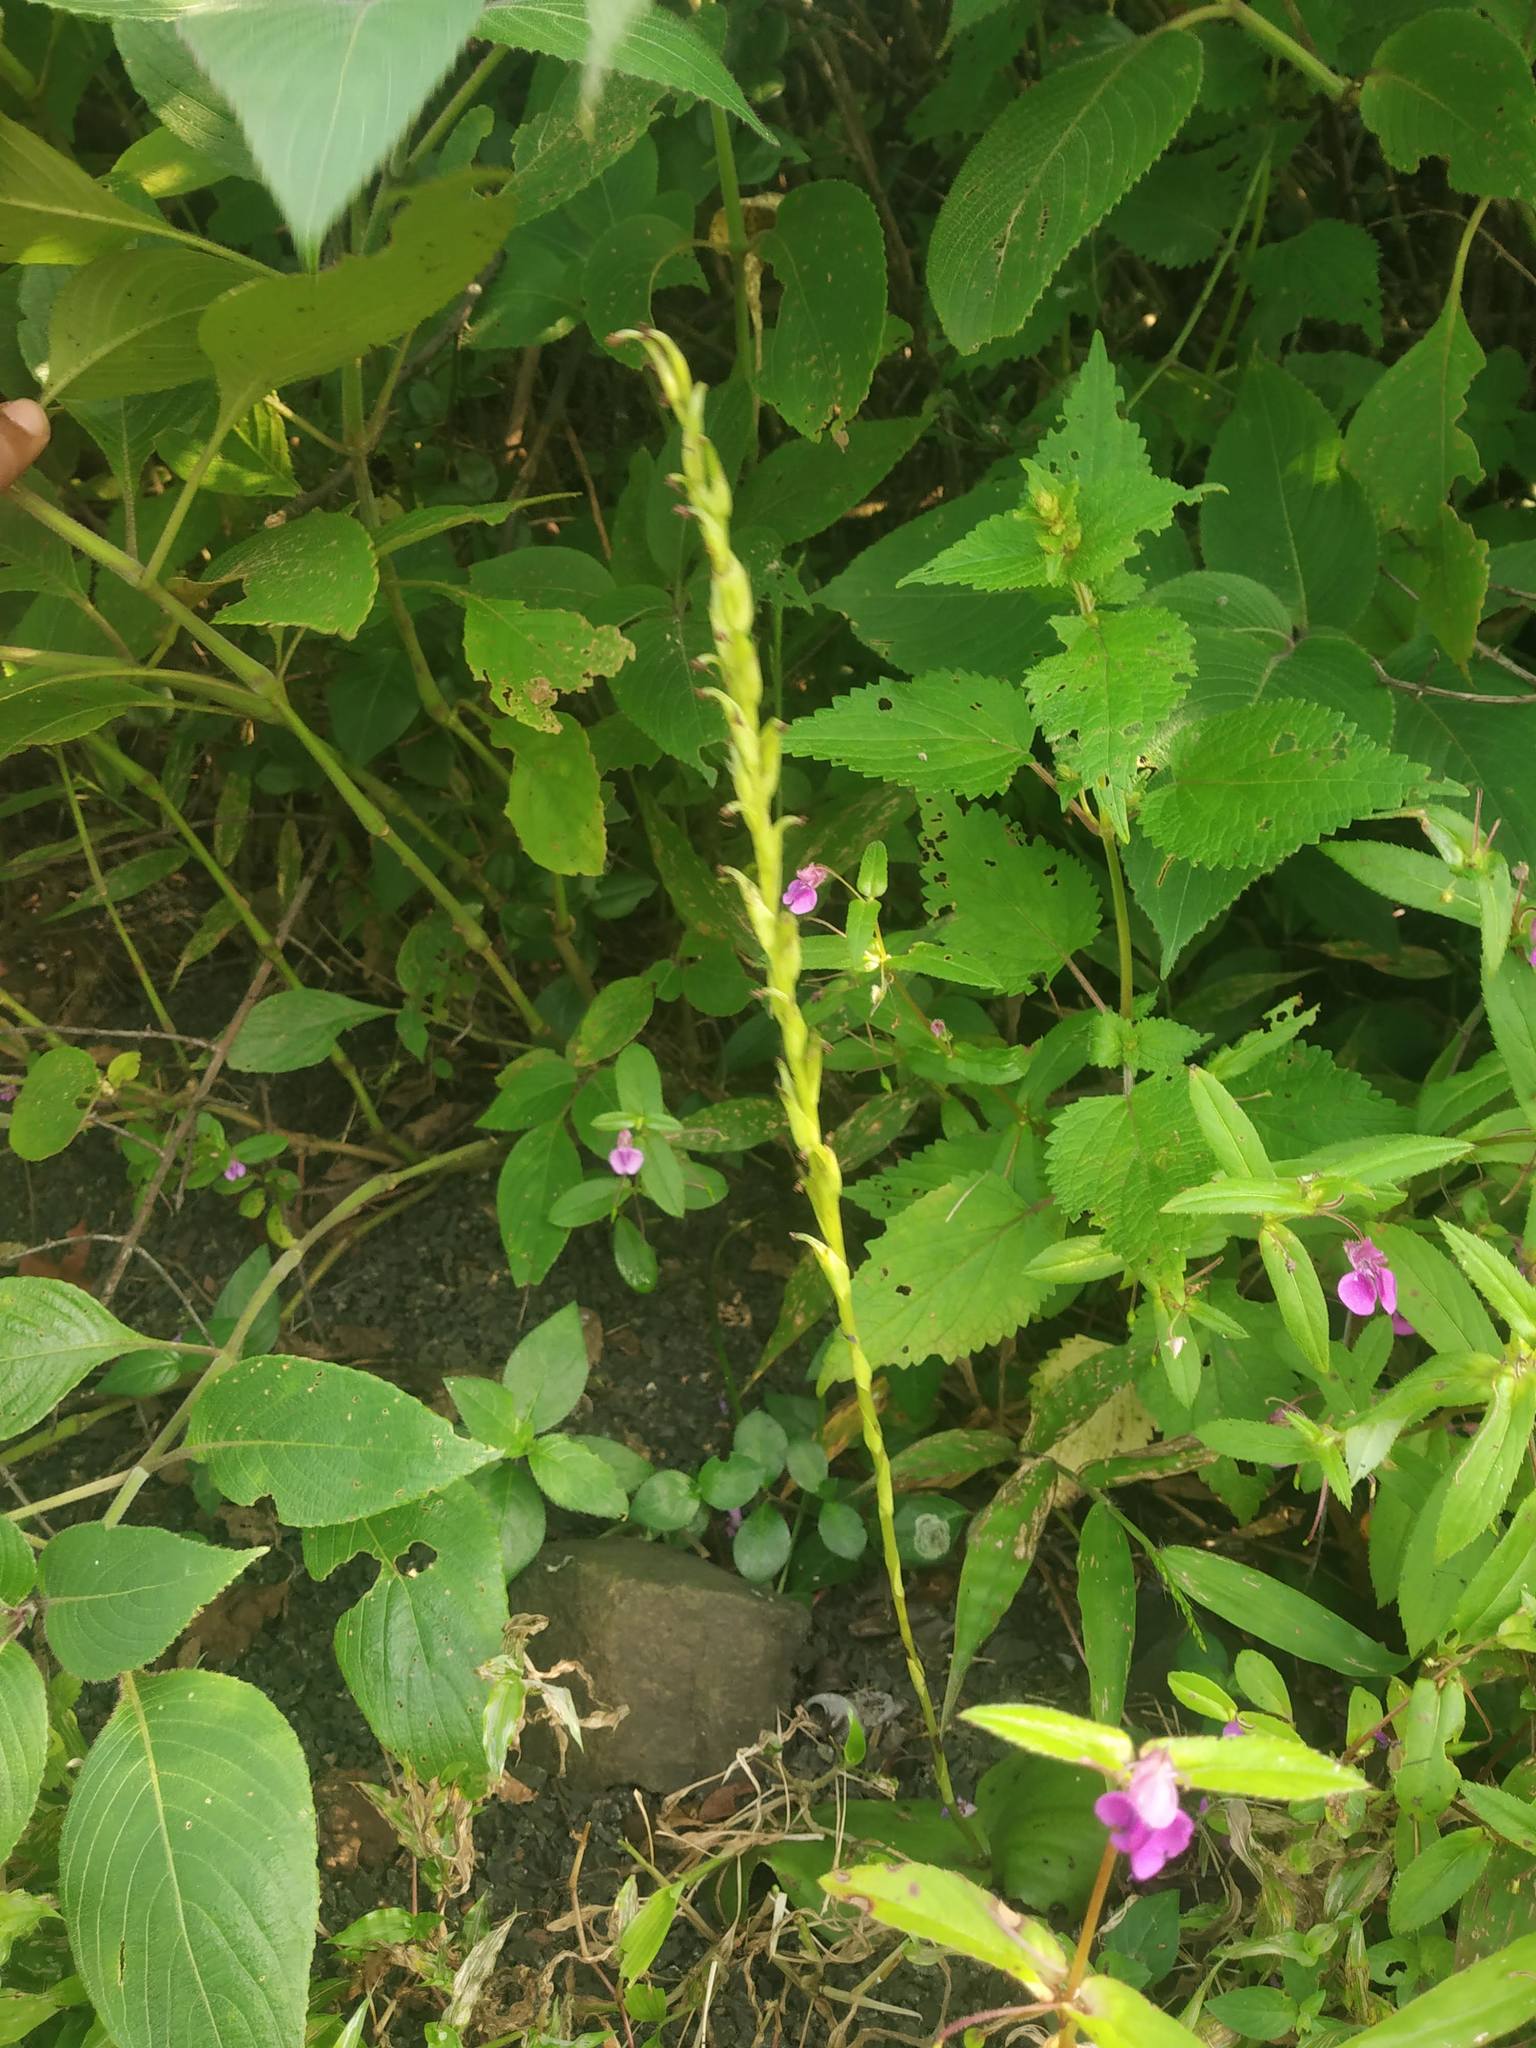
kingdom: Plantae
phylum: Tracheophyta
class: Liliopsida
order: Asparagales
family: Orchidaceae
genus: Habenaria
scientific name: Habenaria brachyphylla
